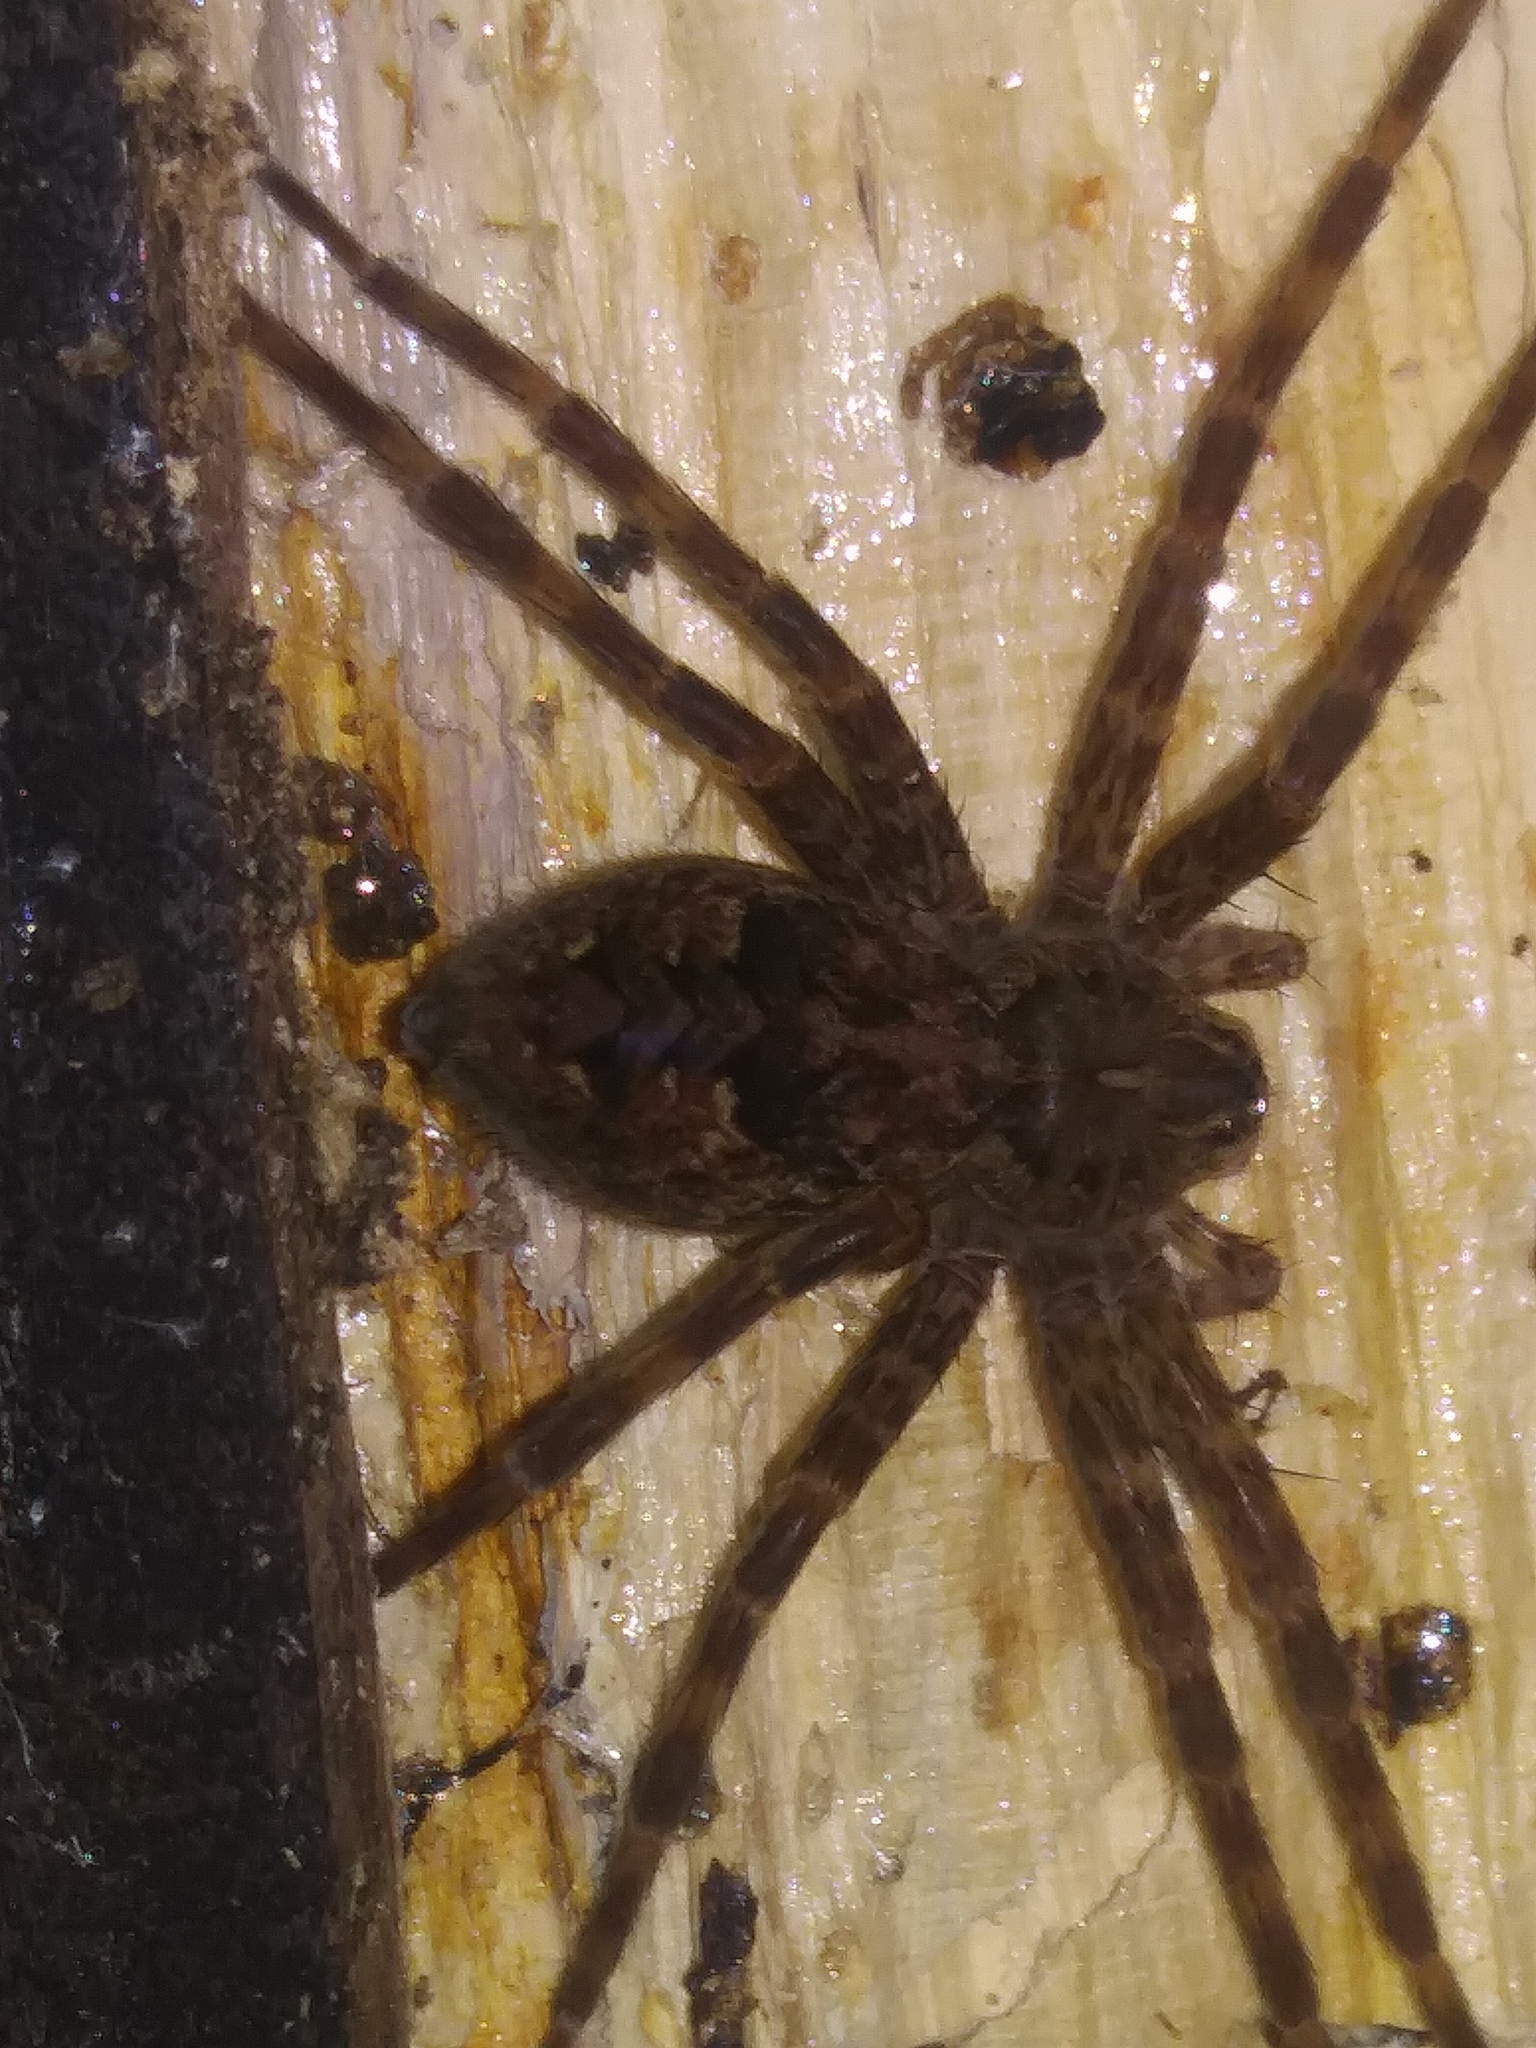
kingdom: Animalia
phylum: Arthropoda
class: Arachnida
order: Araneae
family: Pisauridae
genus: Dolomedes
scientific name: Dolomedes tenebrosus
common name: Dark fishing spider
